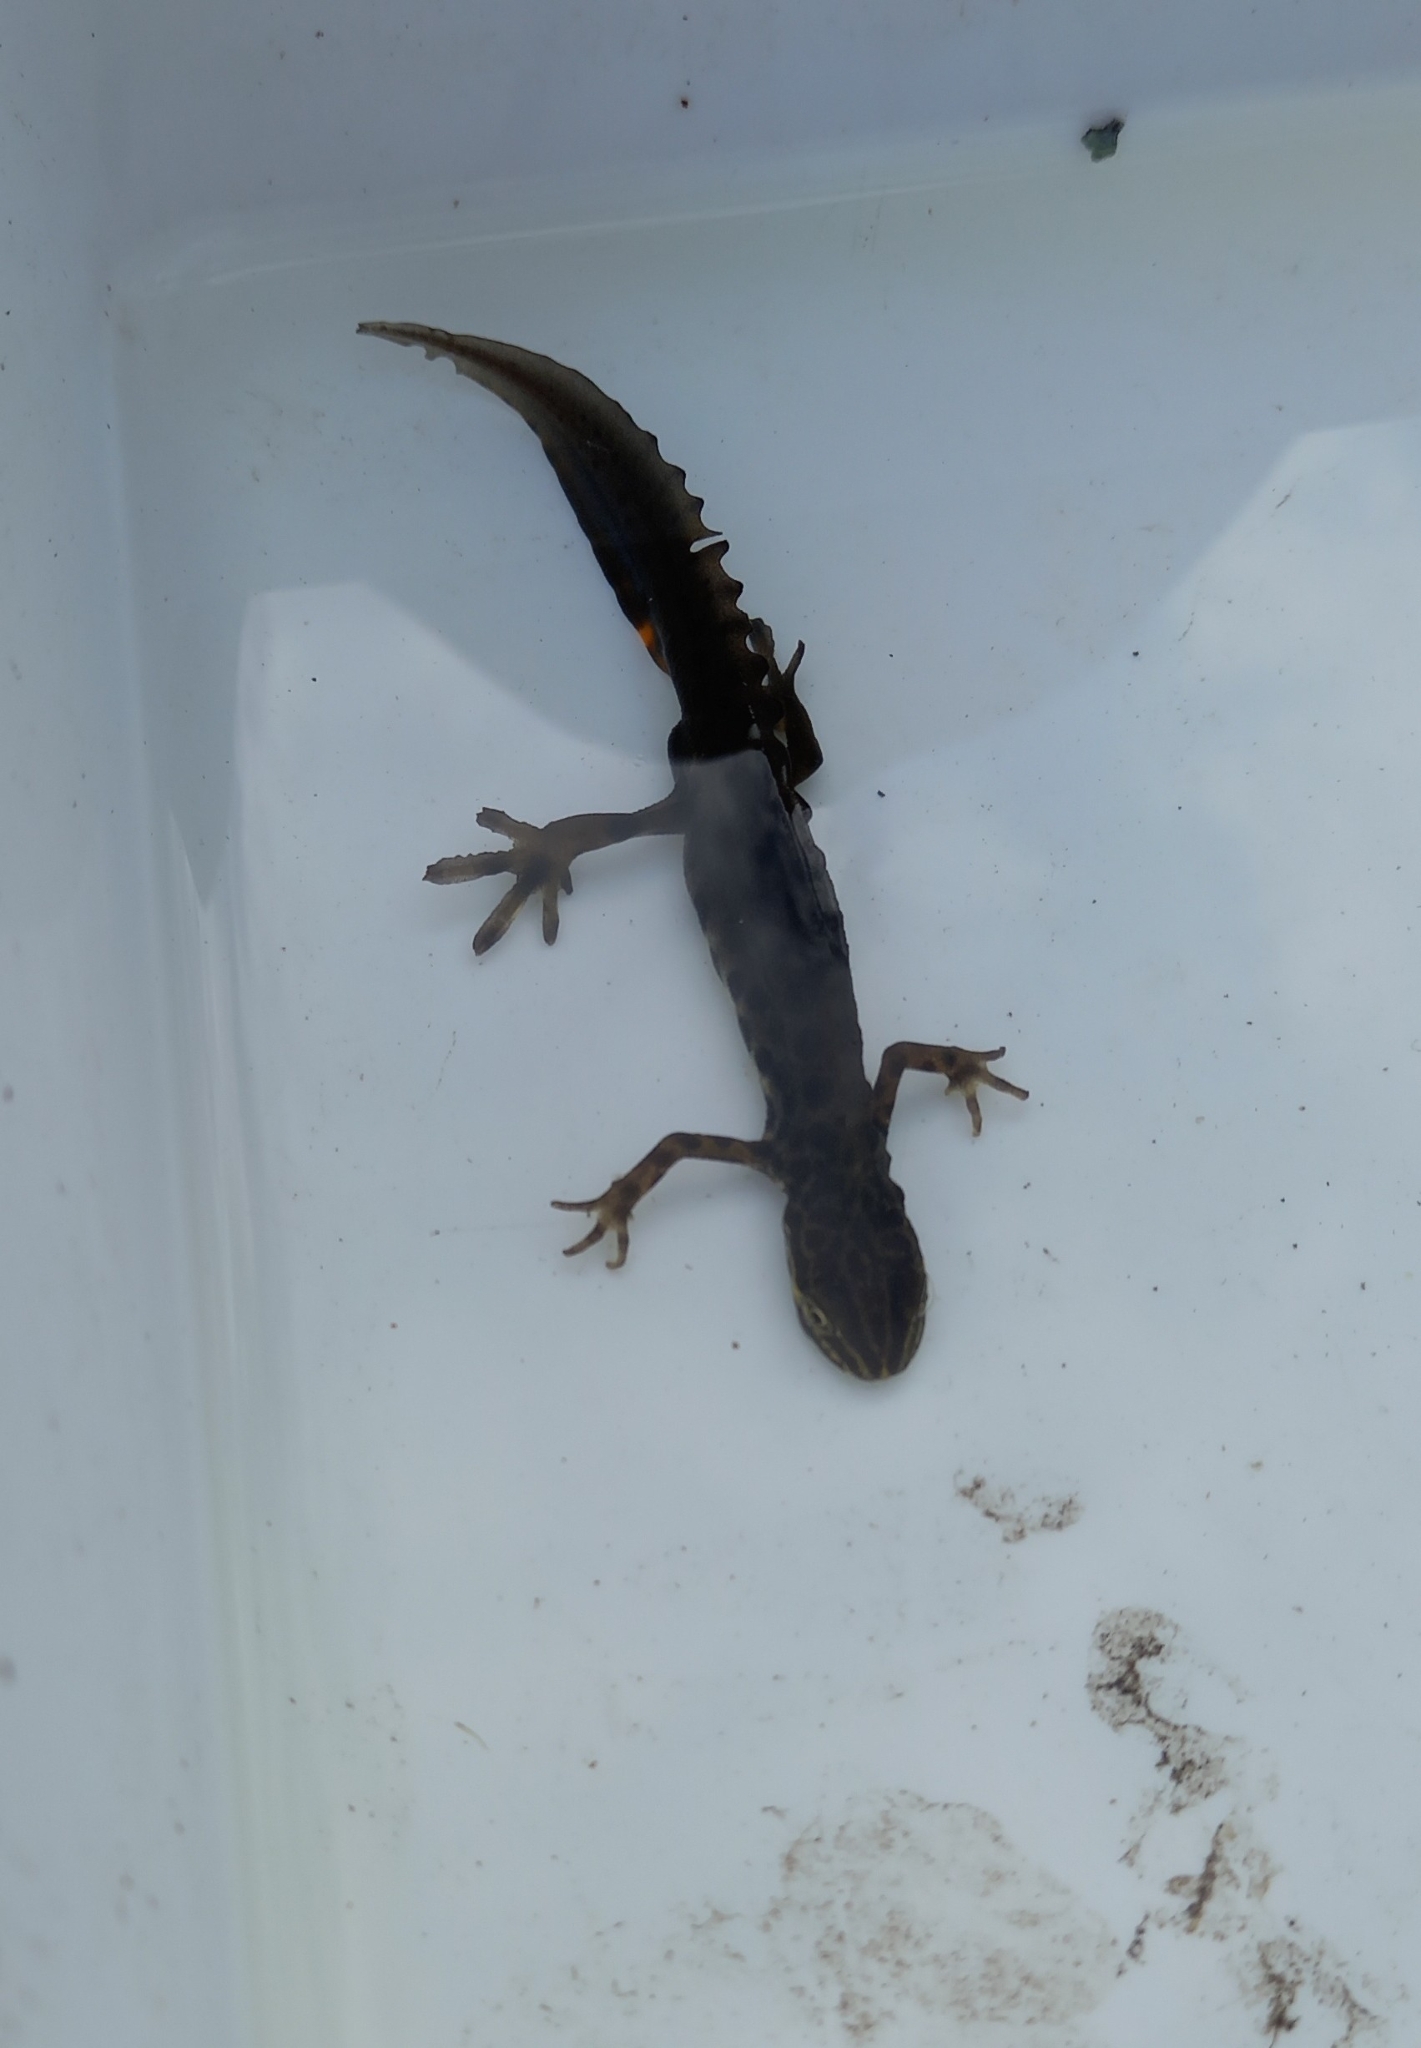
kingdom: Animalia
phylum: Chordata
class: Amphibia
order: Caudata
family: Salamandridae
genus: Lissotriton
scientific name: Lissotriton vulgaris
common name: Smooth newt
